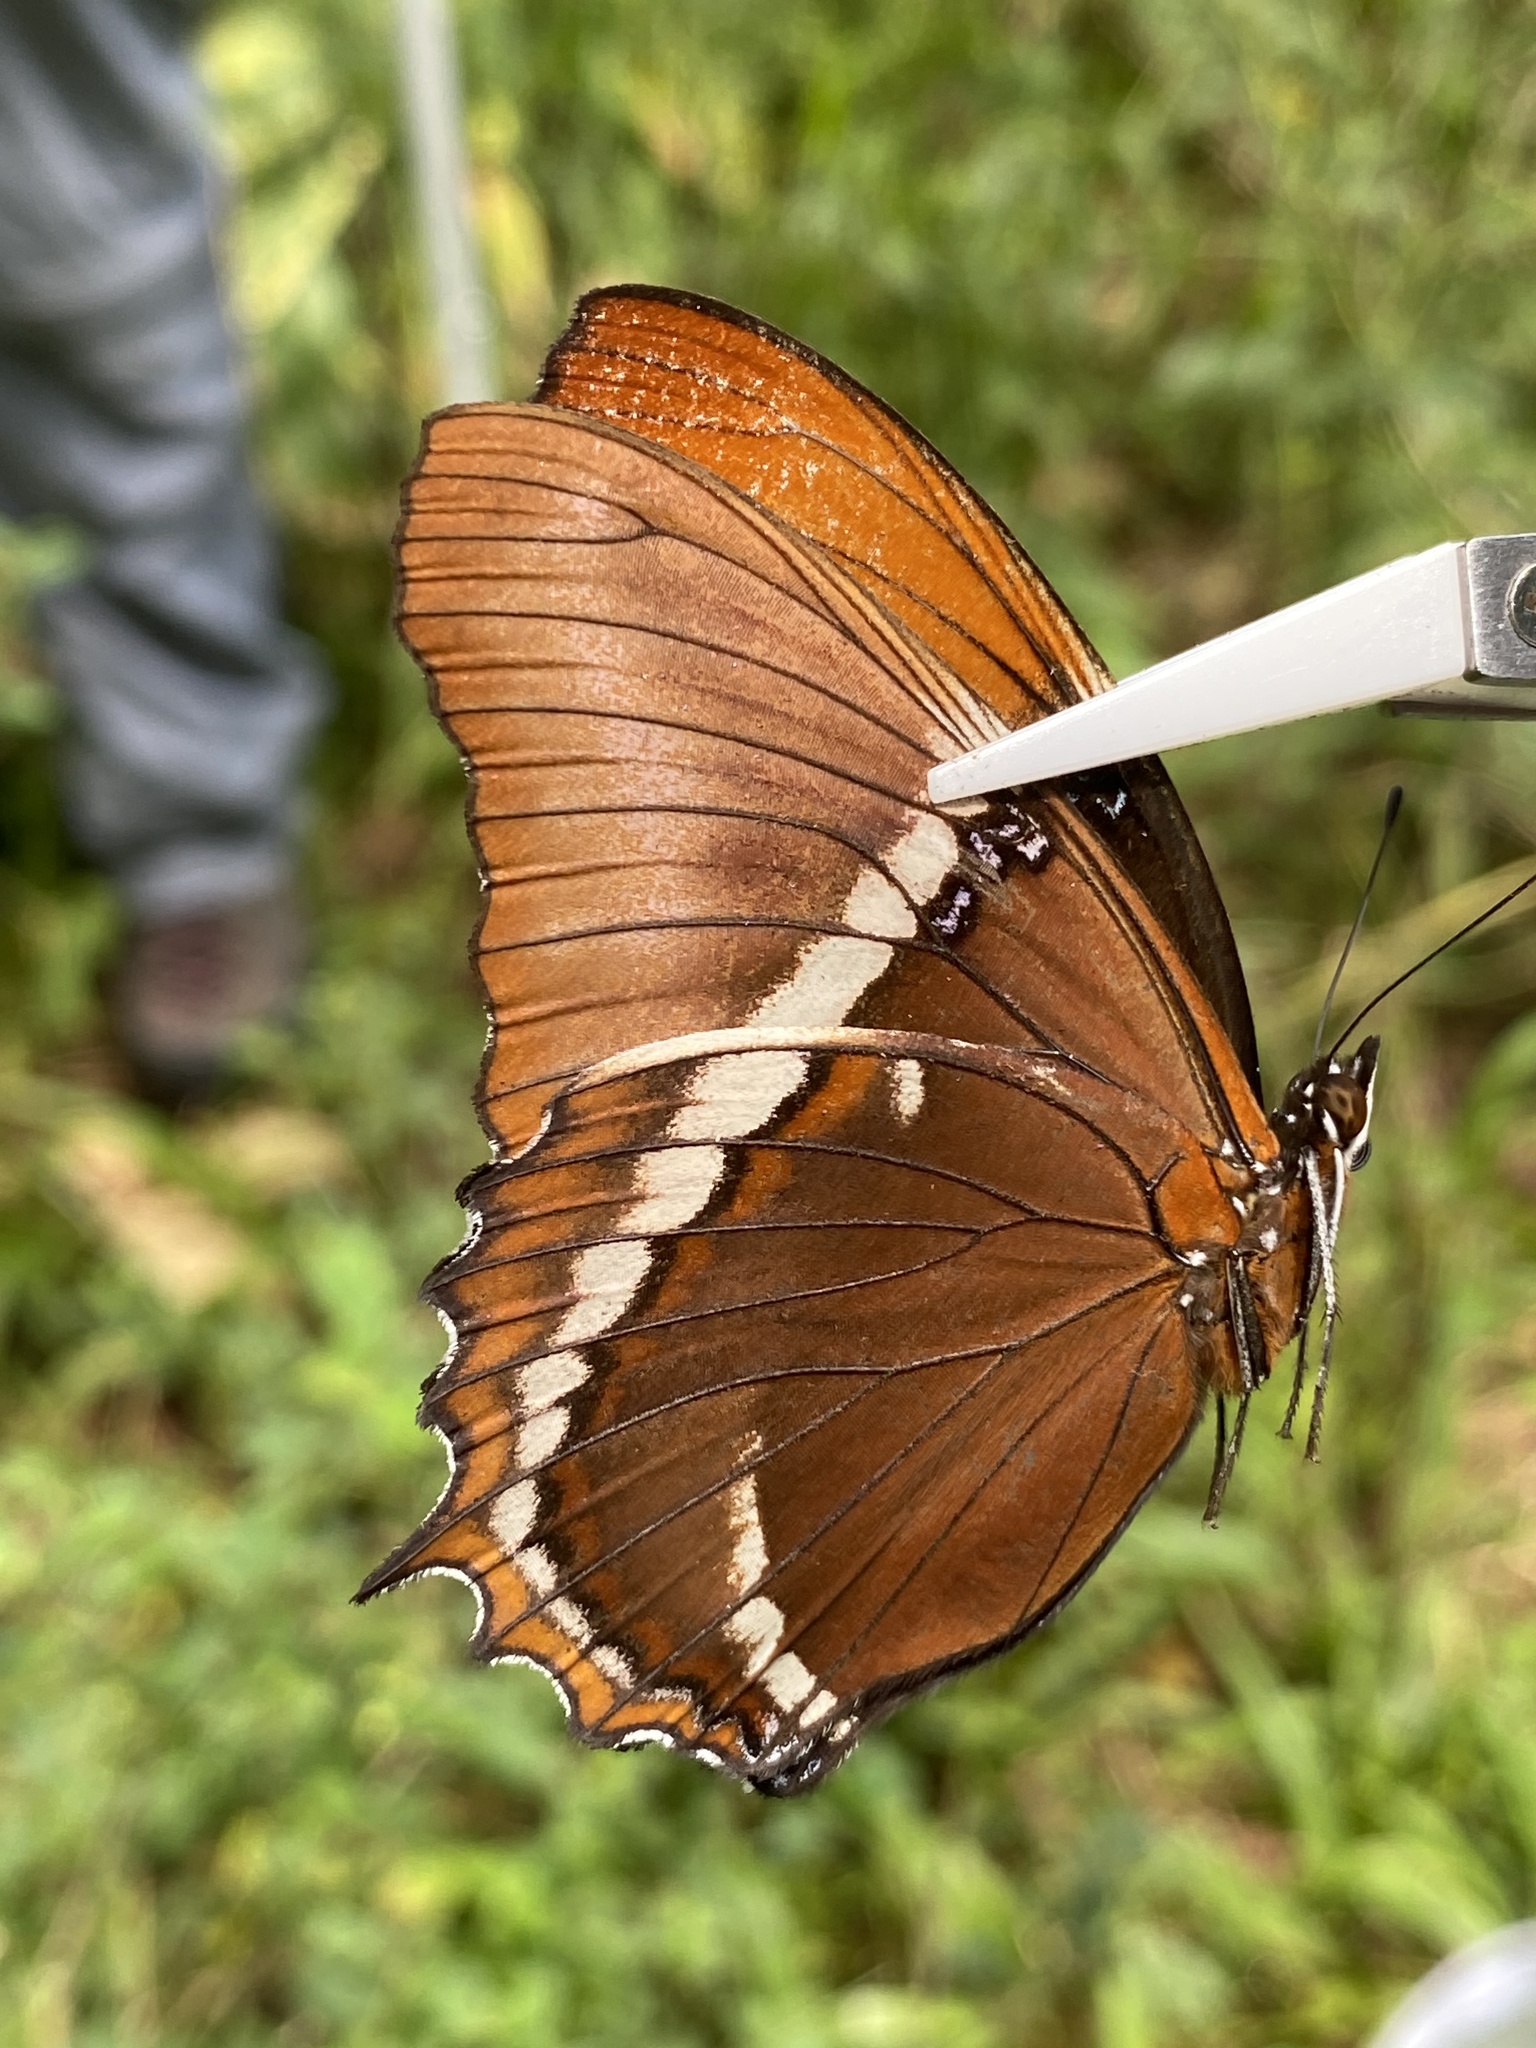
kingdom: Animalia
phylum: Arthropoda
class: Insecta
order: Lepidoptera
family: Nymphalidae
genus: Siproeta
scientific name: Siproeta epaphus
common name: Rusty-tipped page
